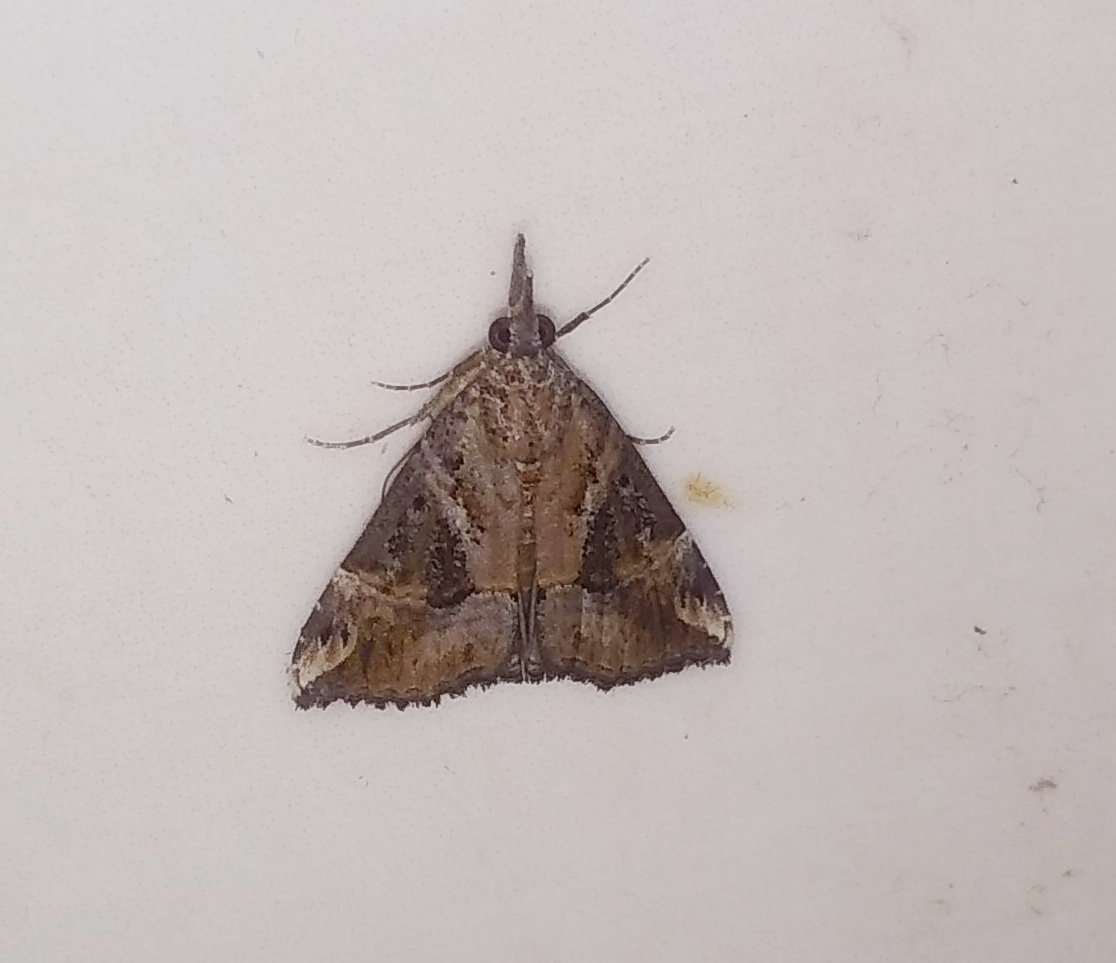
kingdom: Animalia
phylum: Arthropoda
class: Insecta
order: Lepidoptera
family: Erebidae
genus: Hypena
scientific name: Hypena commixtalis
